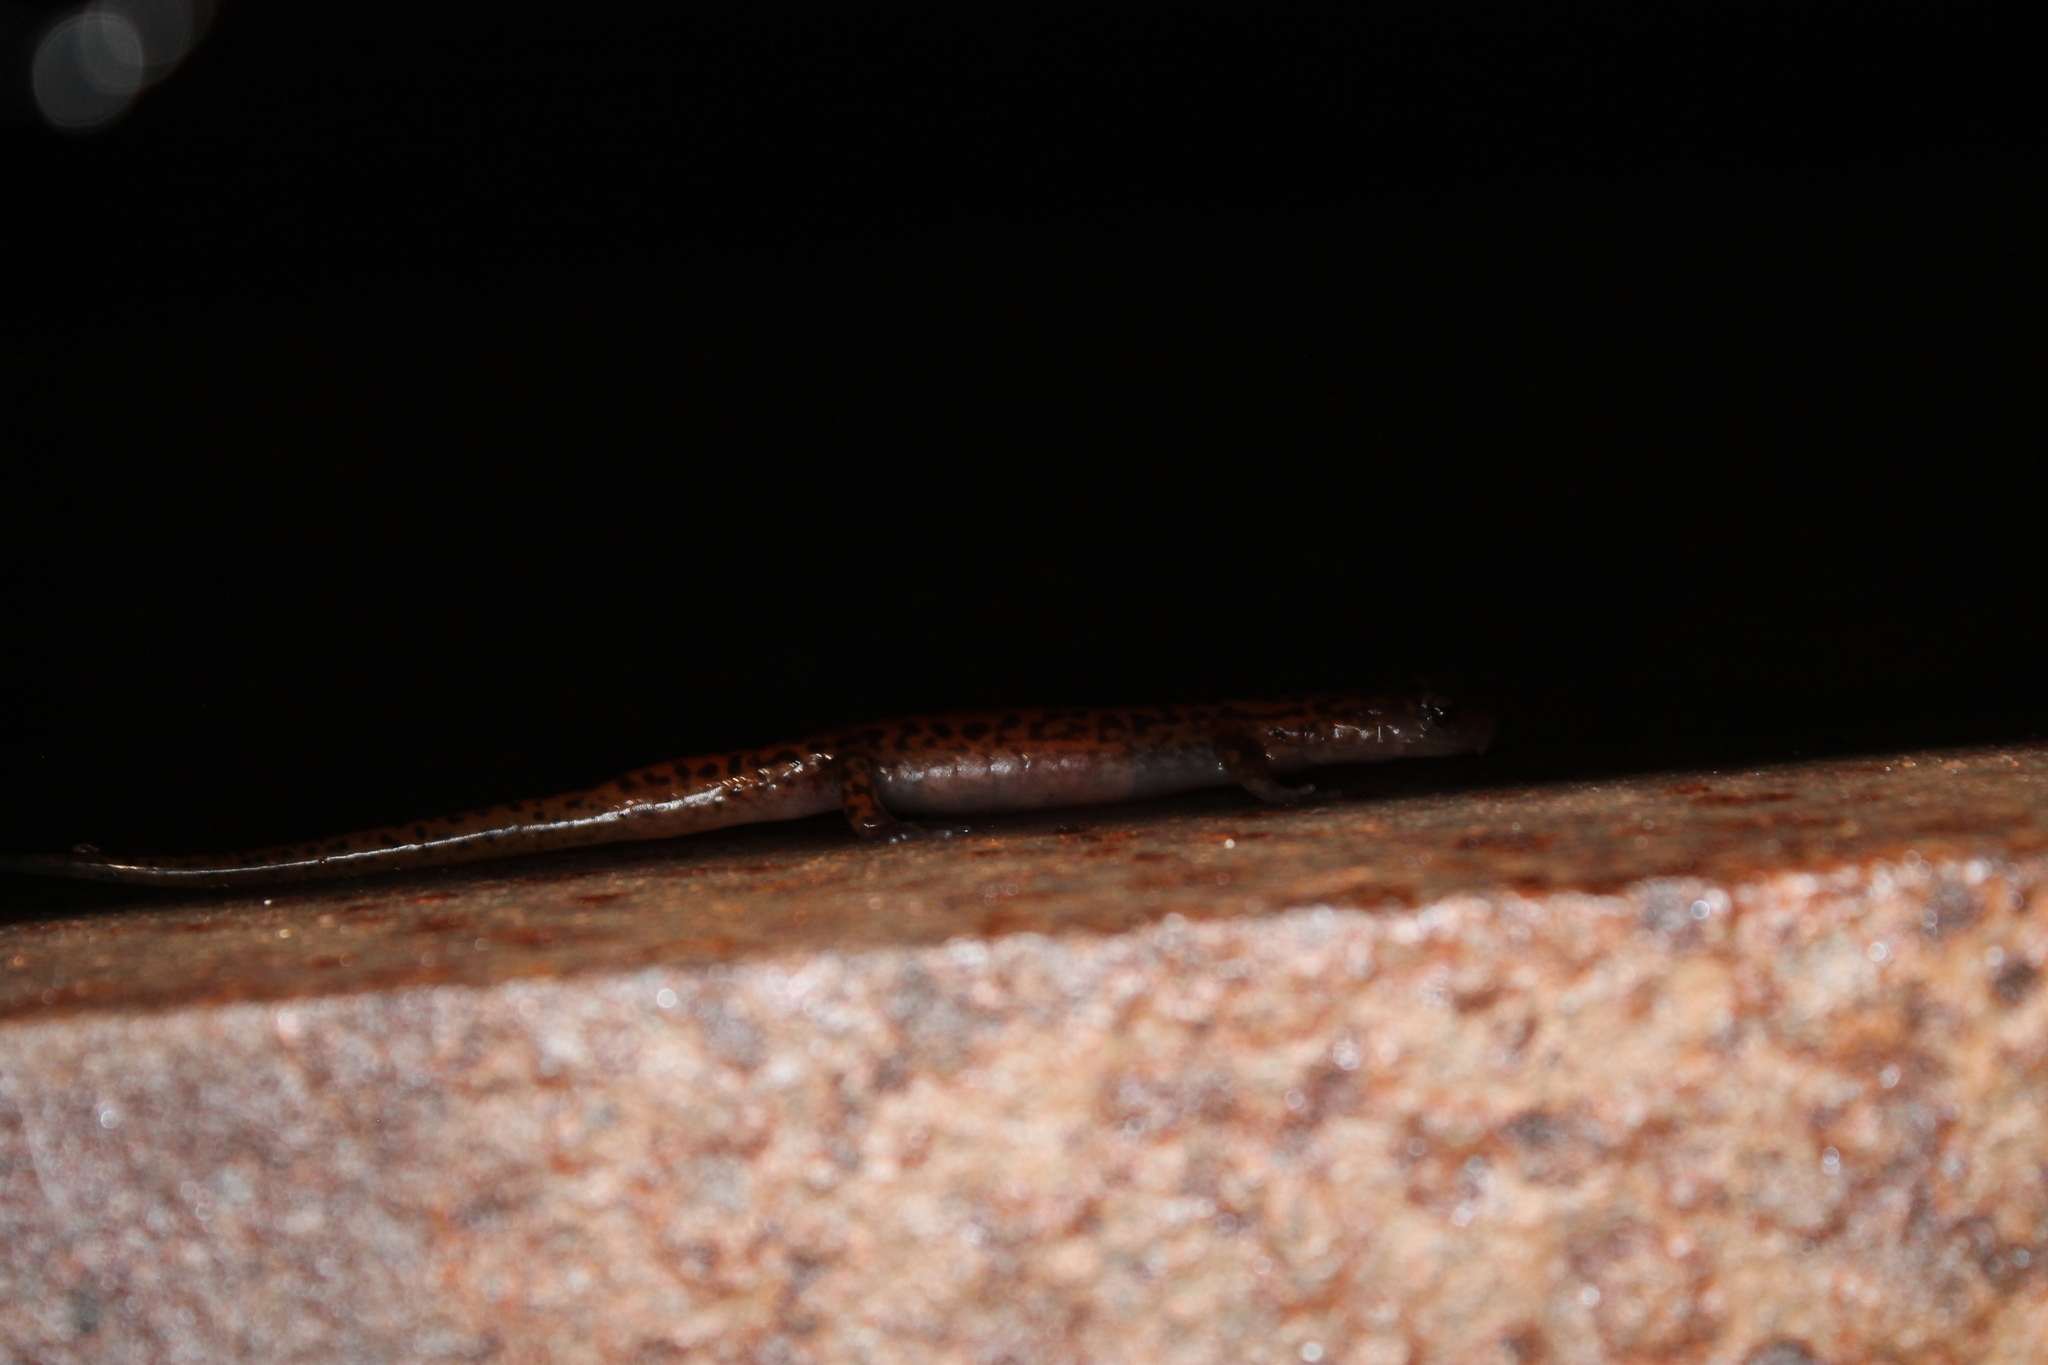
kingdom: Animalia
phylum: Chordata
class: Amphibia
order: Caudata
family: Plethodontidae
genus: Eurycea
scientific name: Eurycea lucifuga
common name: Cave salamander
